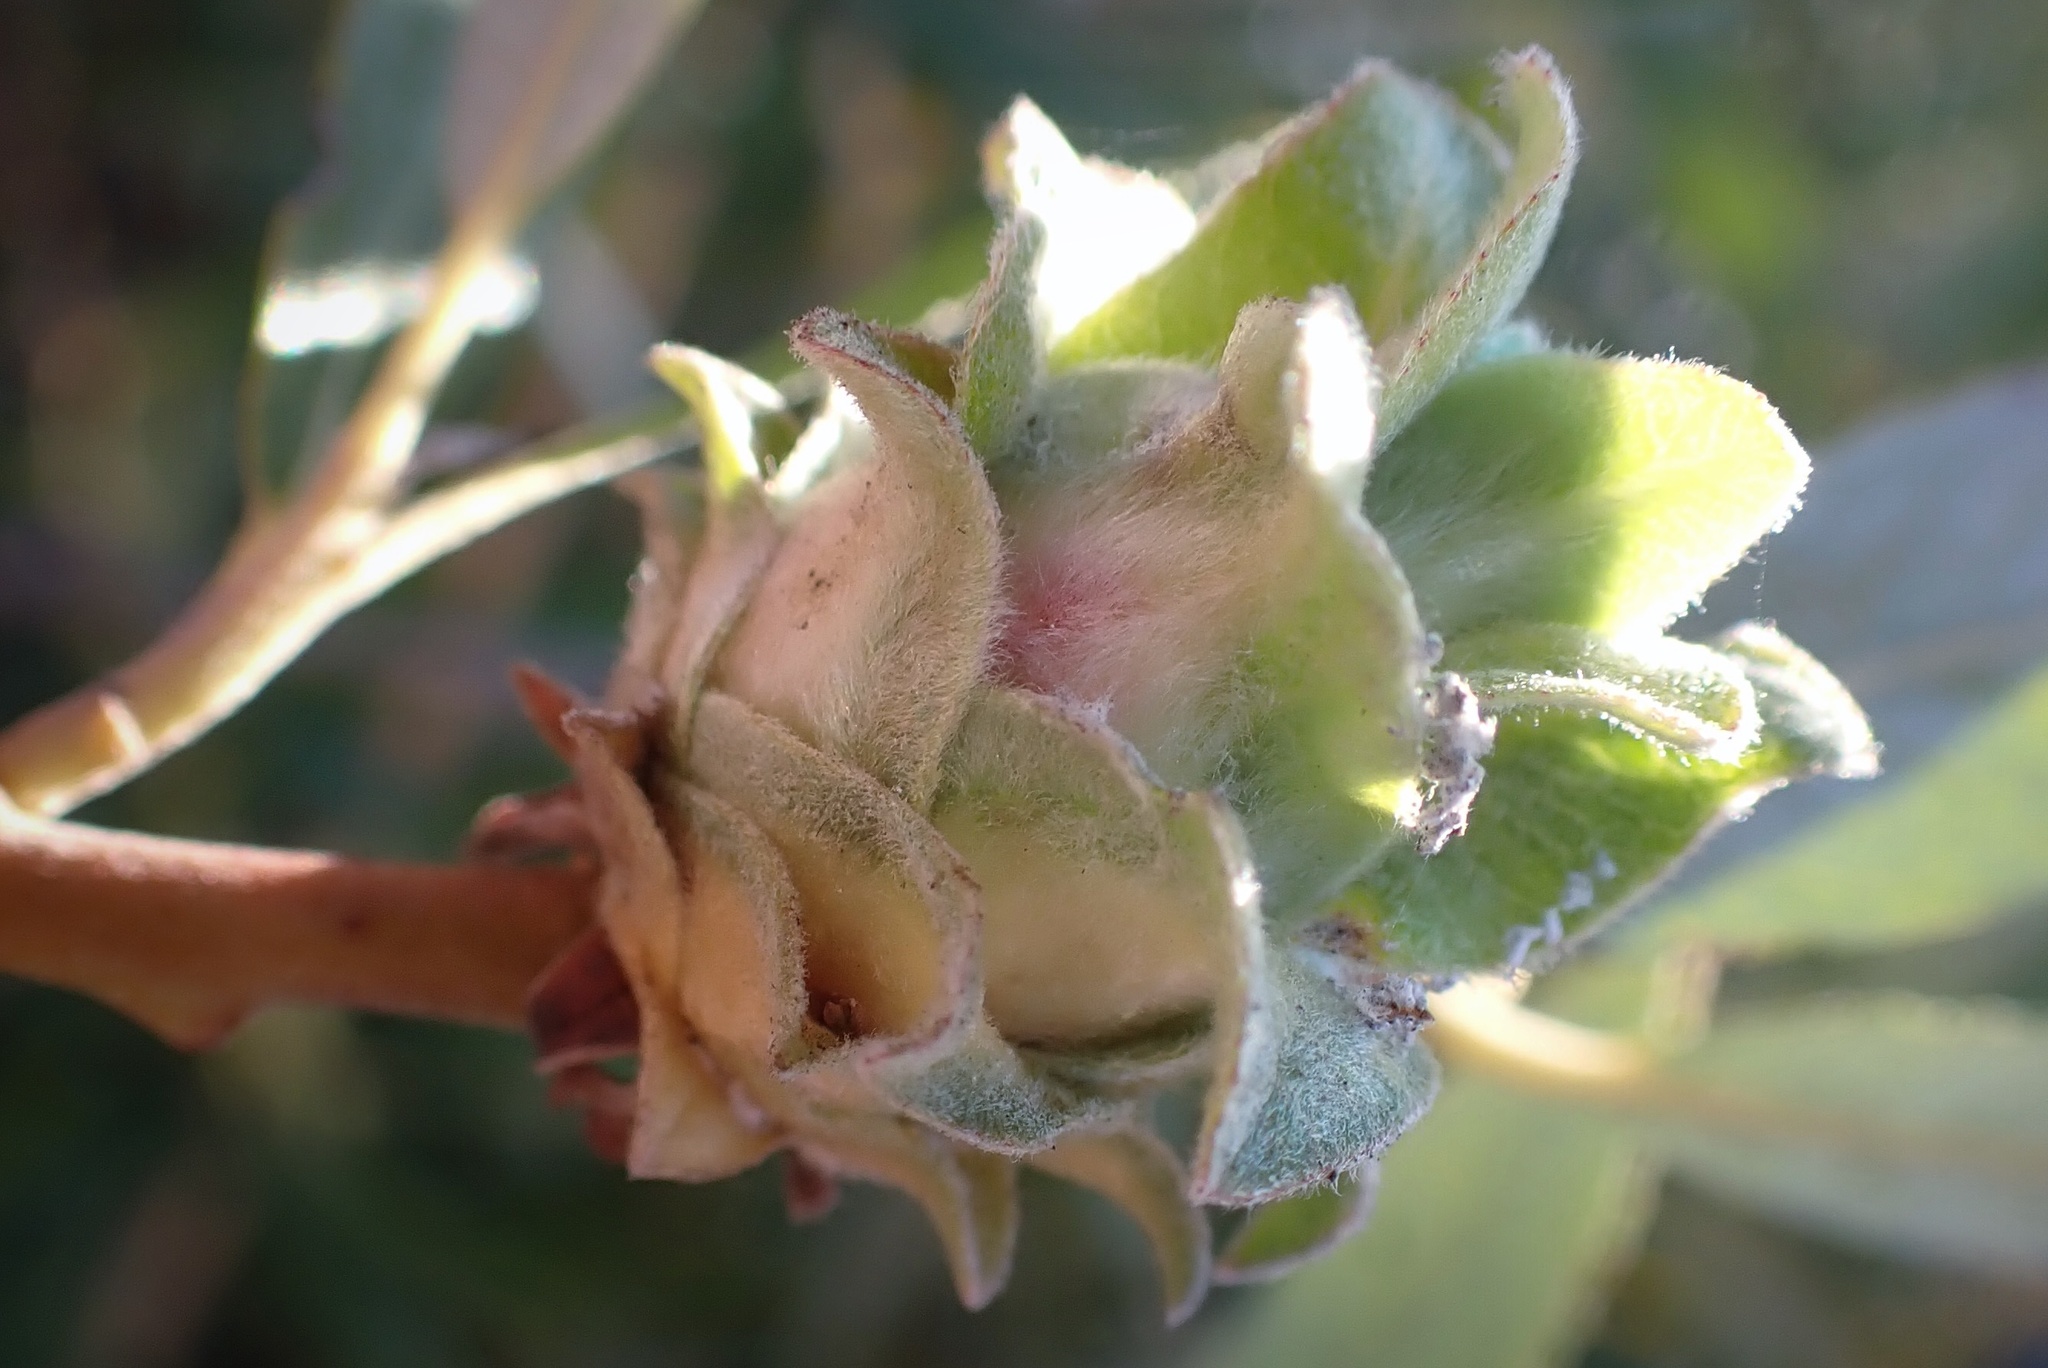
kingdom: Animalia
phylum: Arthropoda
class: Insecta
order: Diptera
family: Cecidomyiidae
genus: Rabdophaga
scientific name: Rabdophaga salicisbrassicoides
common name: Willow cabbagegall midge
